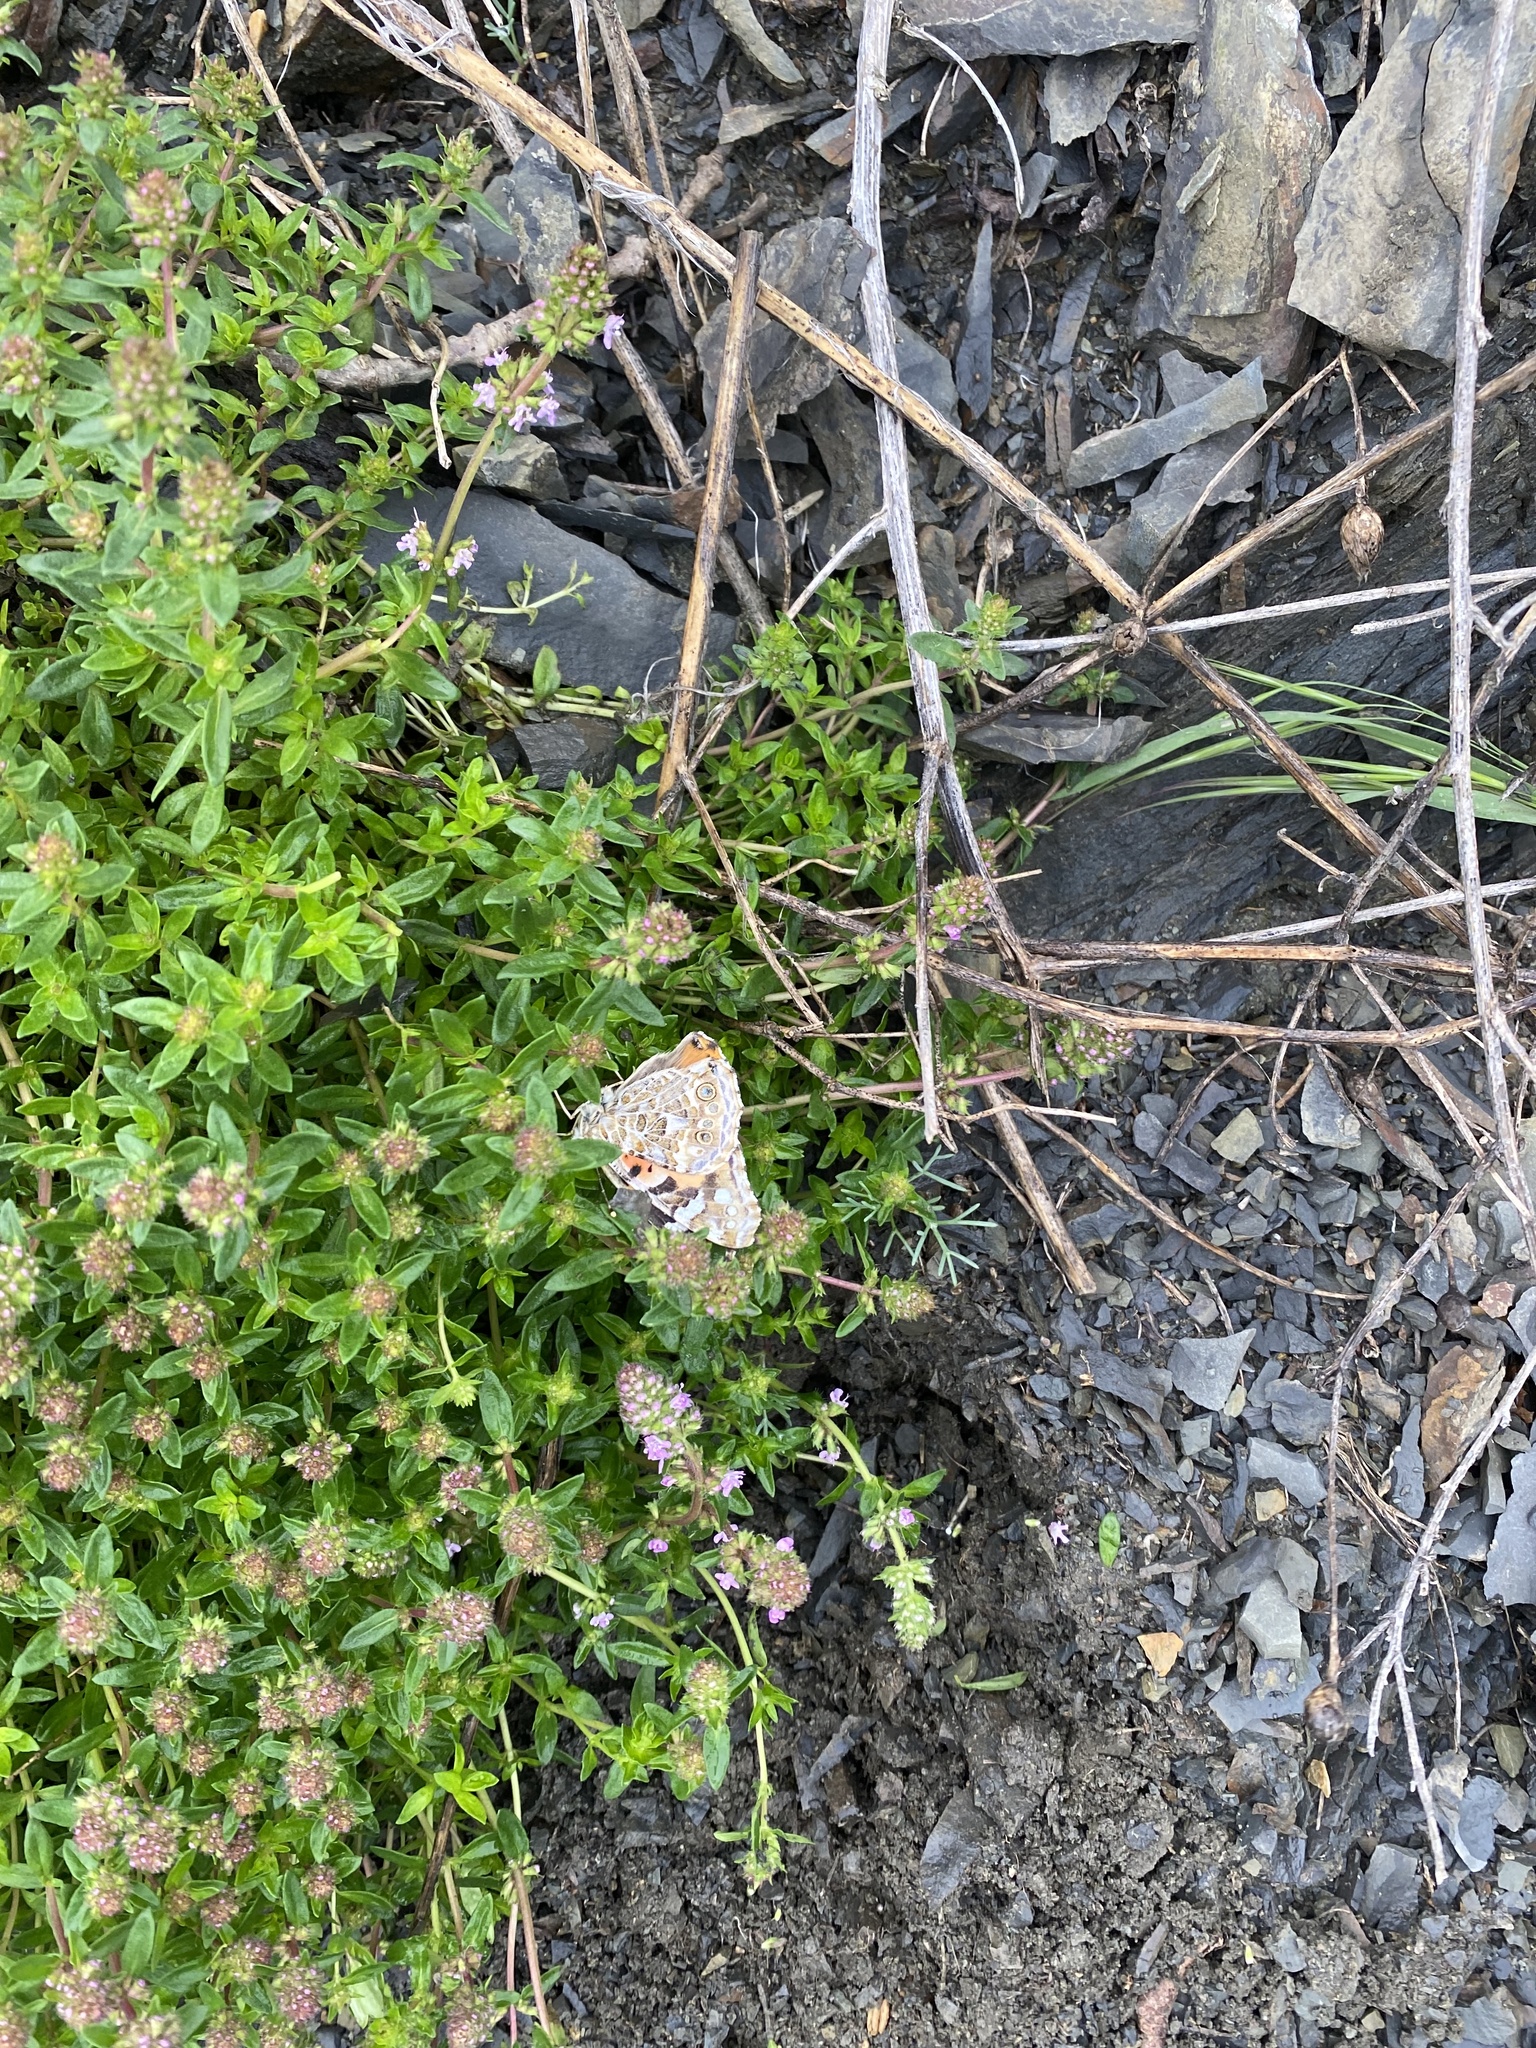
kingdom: Animalia
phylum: Arthropoda
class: Insecta
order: Lepidoptera
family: Nymphalidae
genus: Vanessa
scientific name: Vanessa cardui
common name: Painted lady
